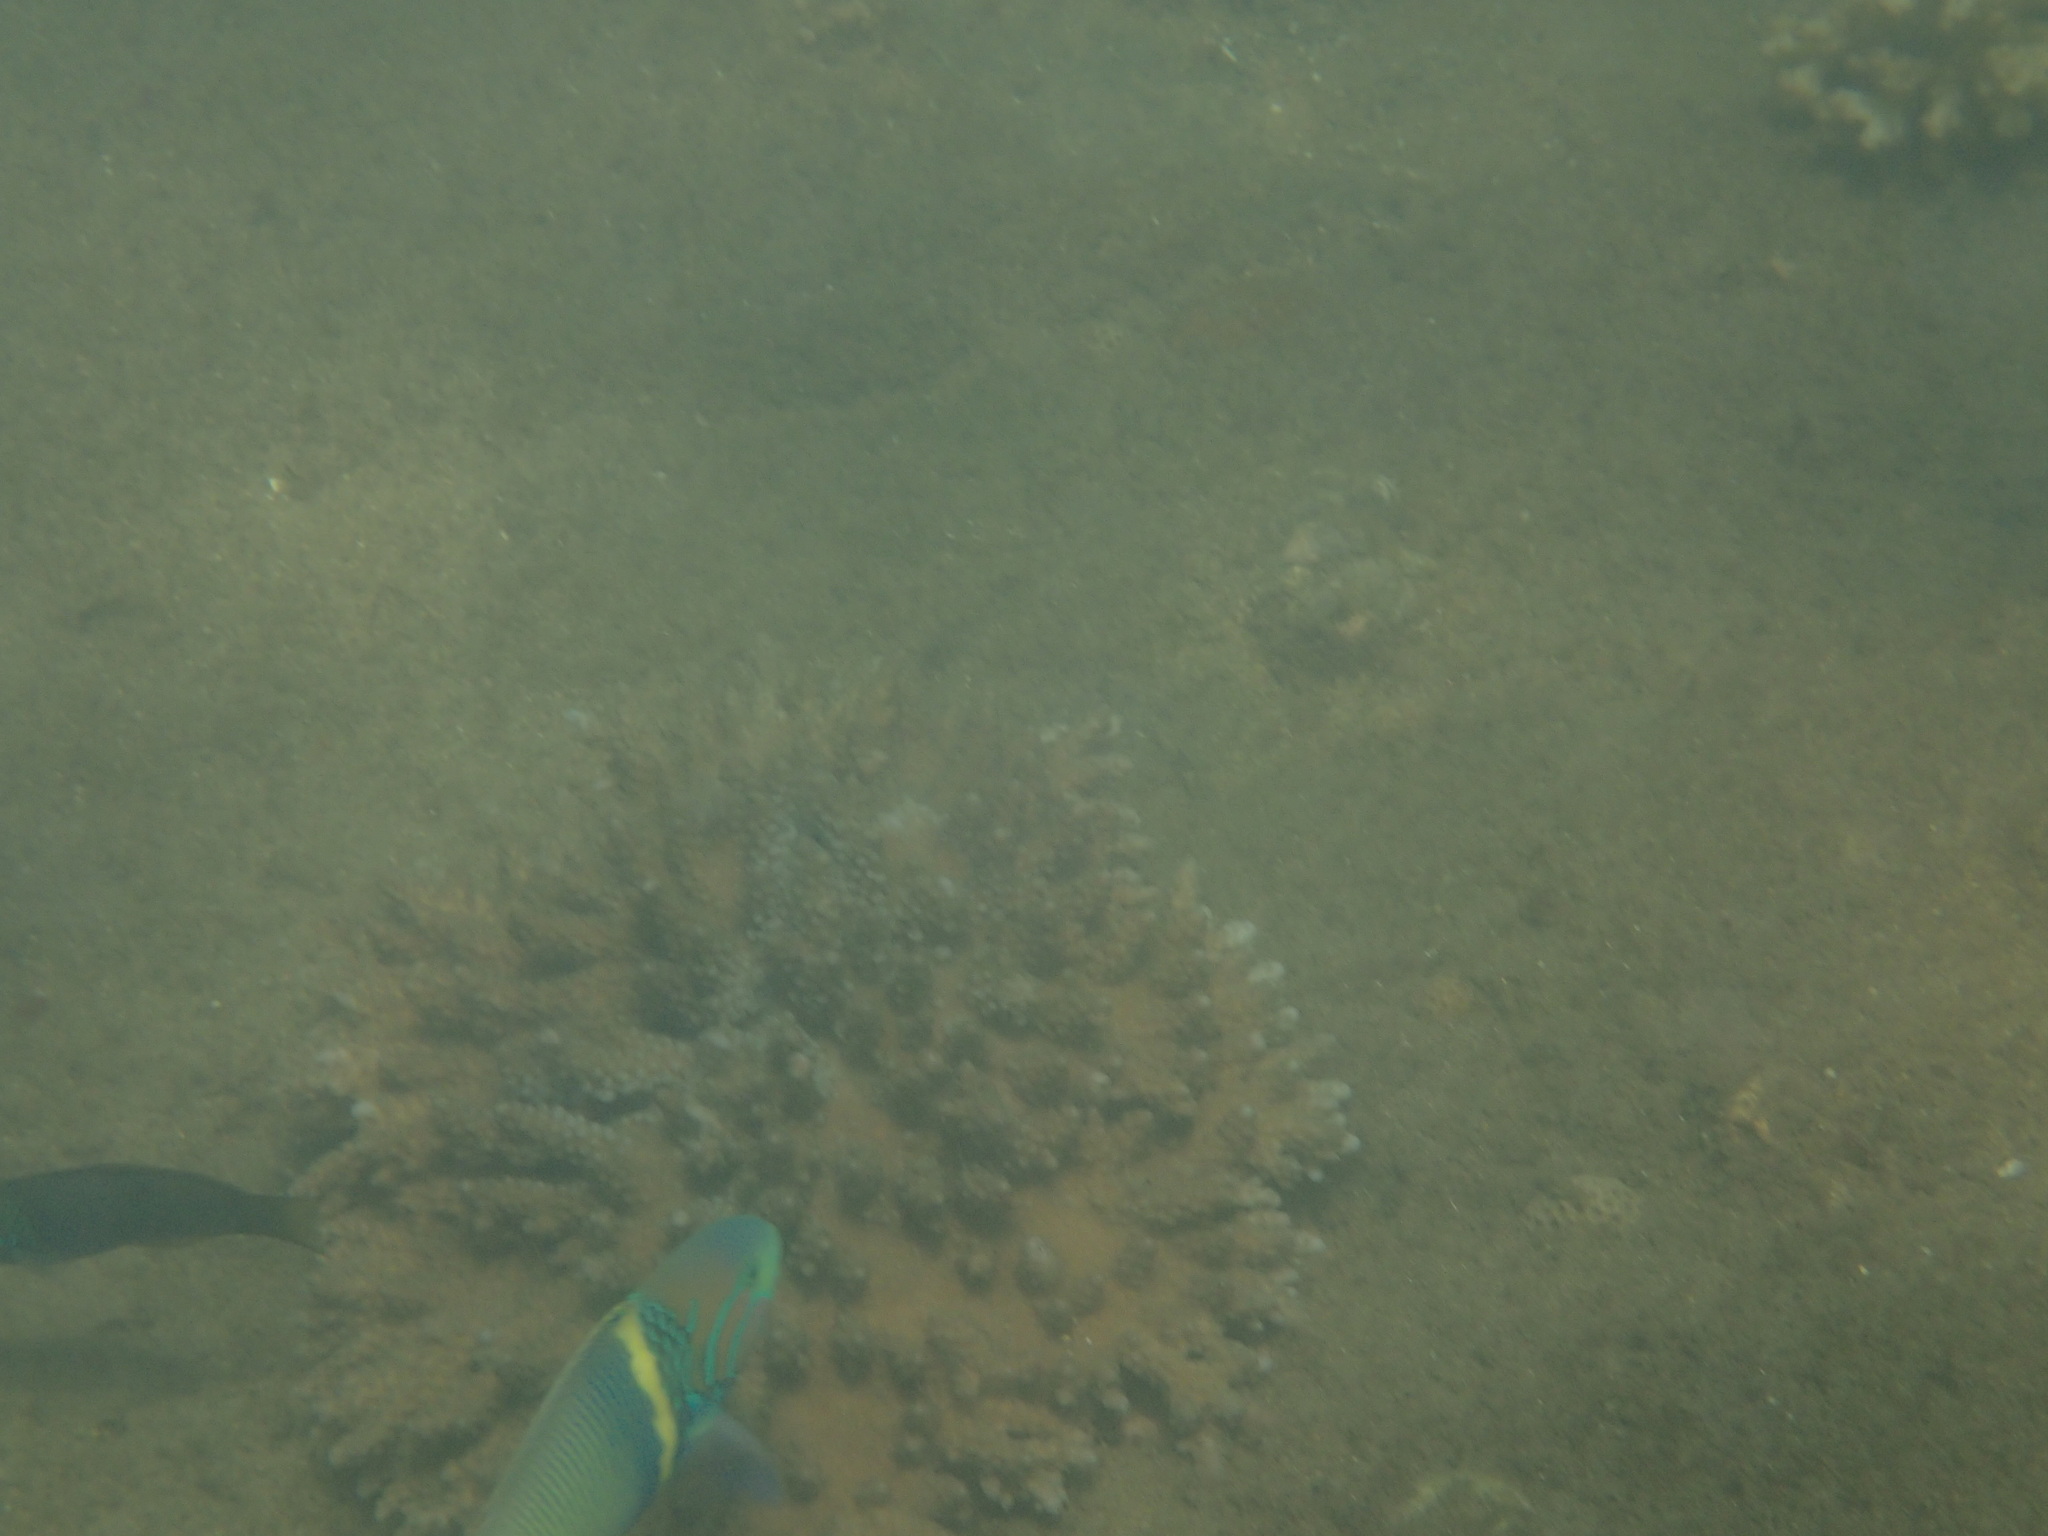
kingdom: Animalia
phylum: Chordata
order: Perciformes
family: Labridae
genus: Thalassoma
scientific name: Thalassoma hebraicum
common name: Goldbar wrasse
